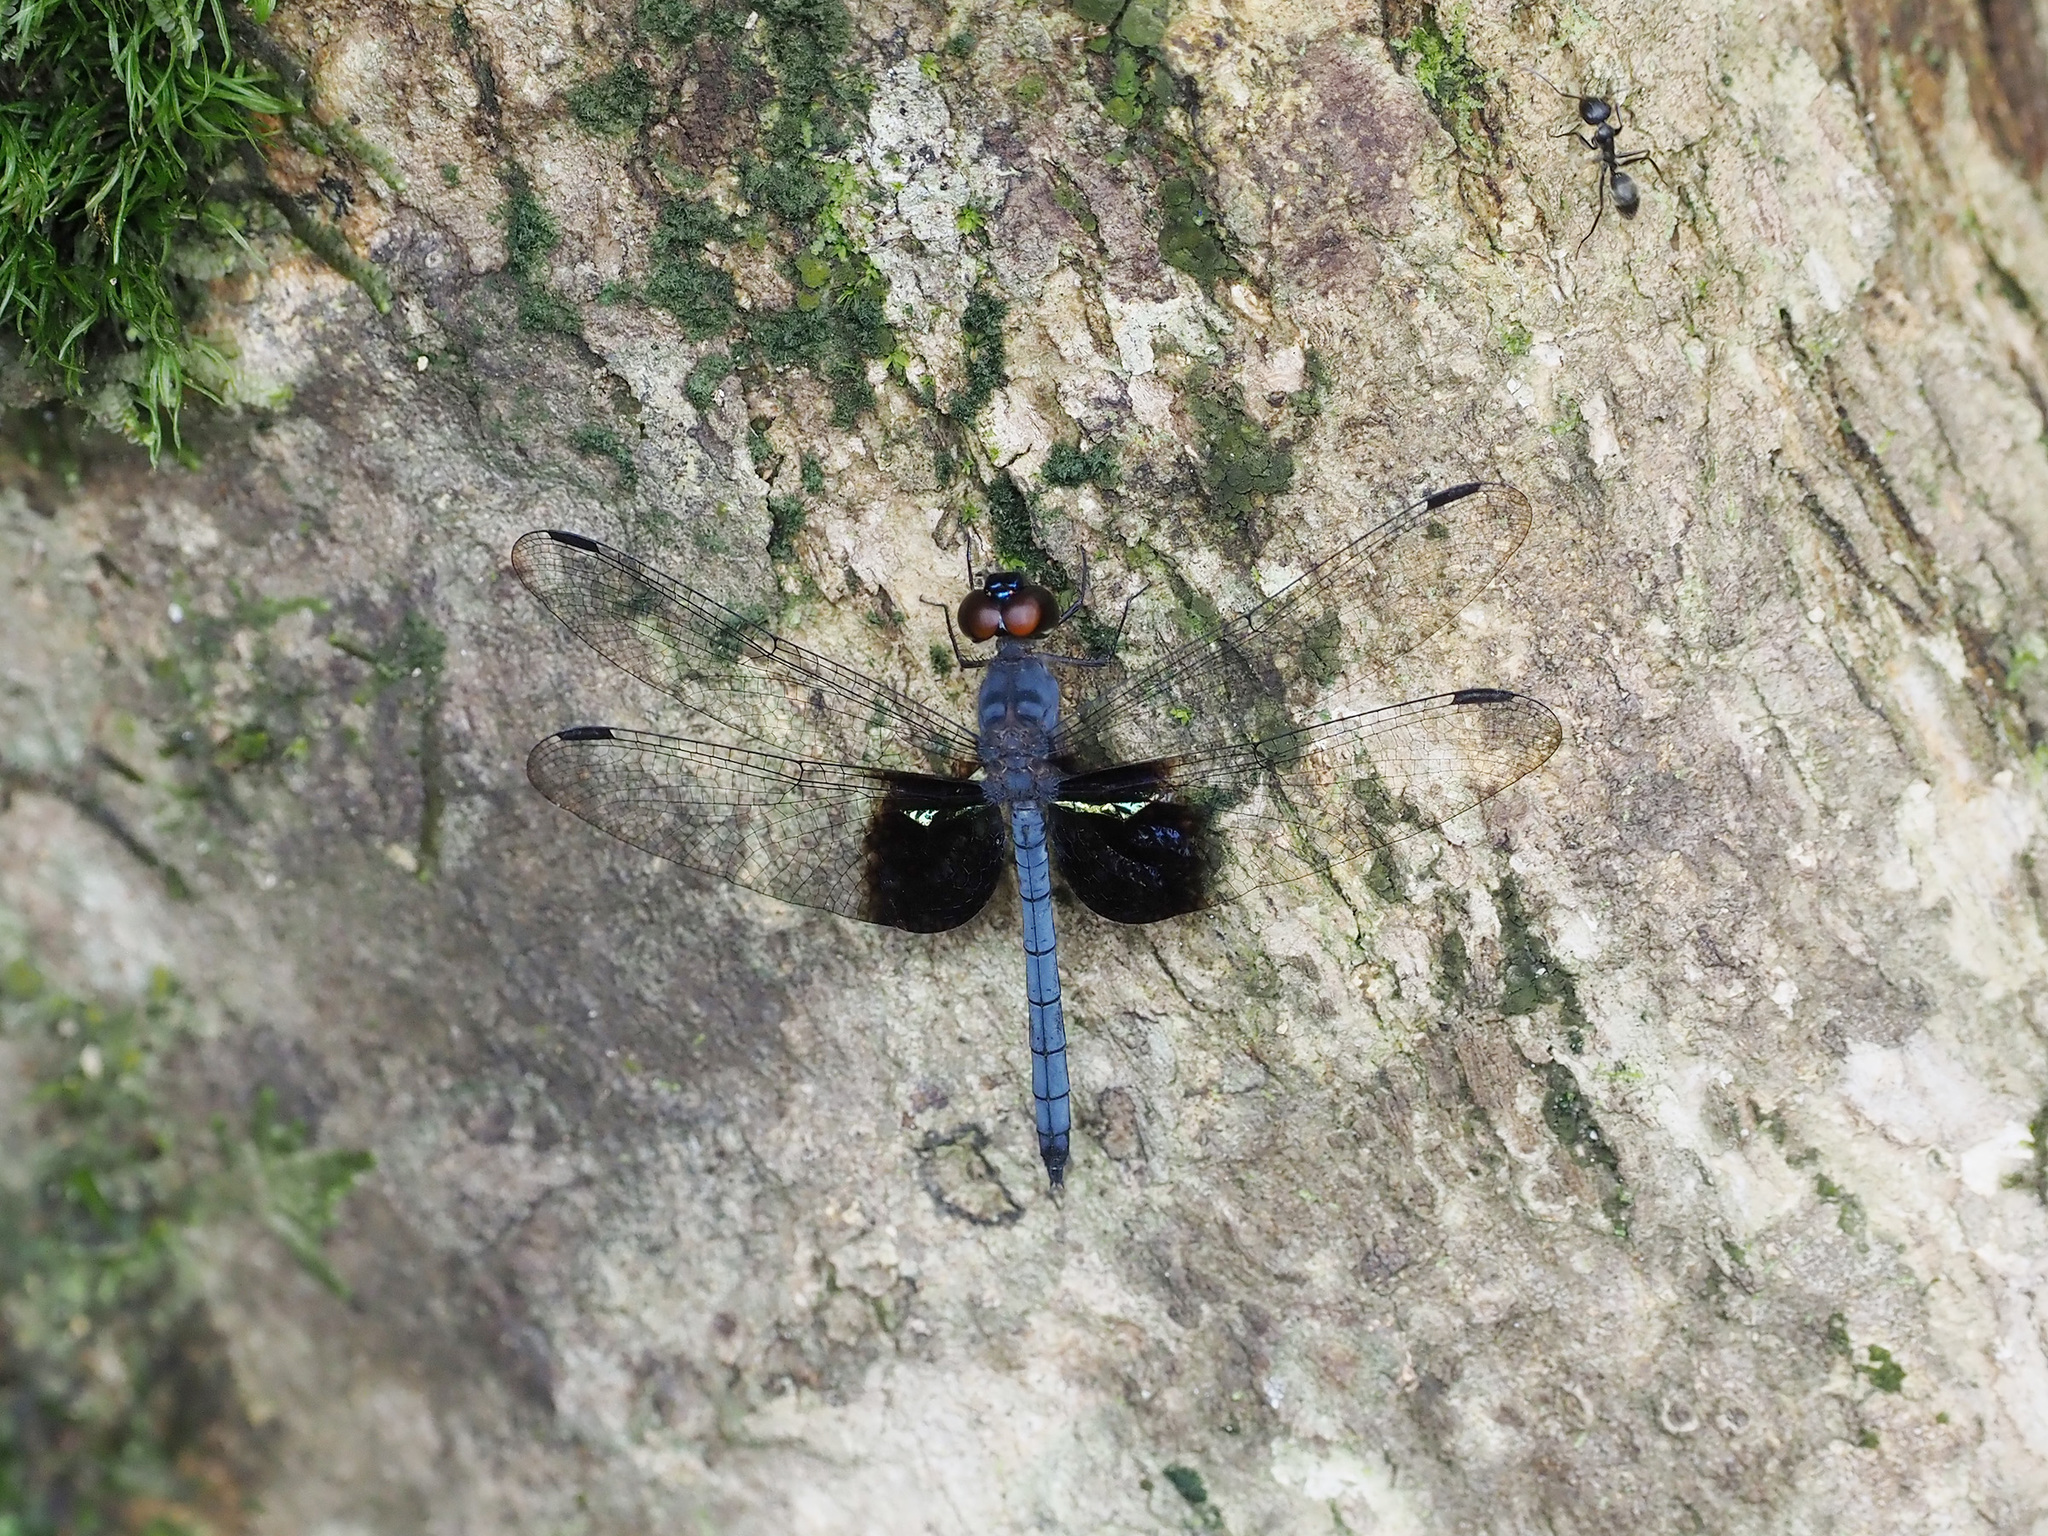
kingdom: Animalia
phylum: Arthropoda
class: Insecta
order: Odonata
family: Libellulidae
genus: Tyriobapta
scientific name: Tyriobapta torrida
